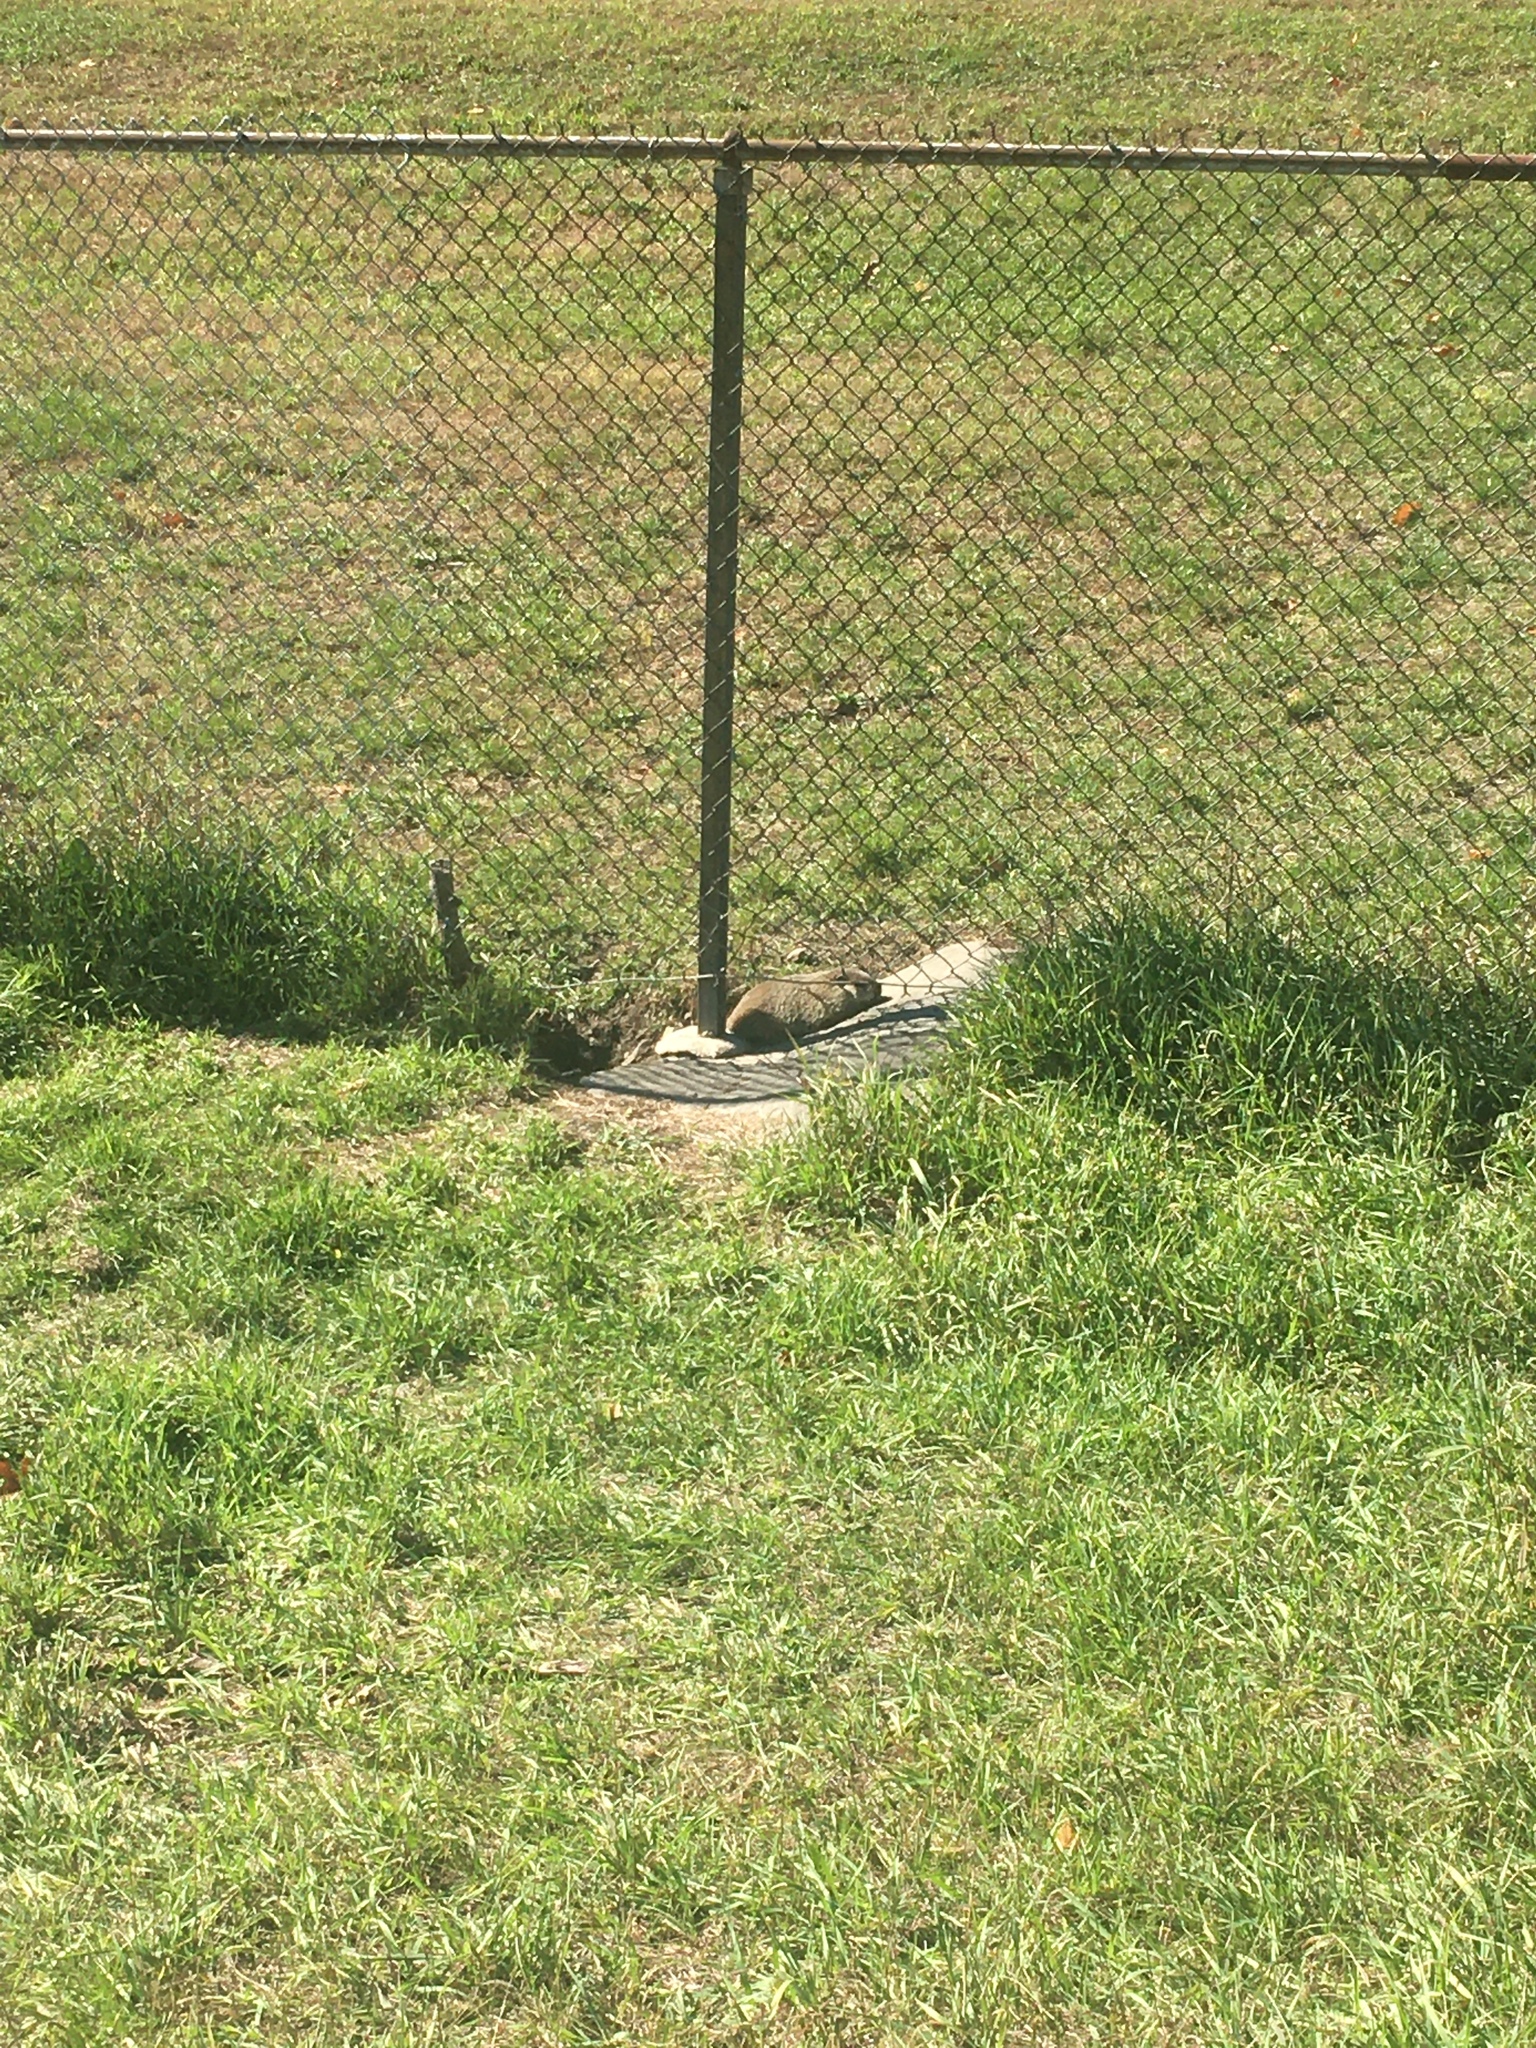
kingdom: Animalia
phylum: Chordata
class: Mammalia
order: Rodentia
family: Sciuridae
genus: Marmota
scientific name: Marmota monax
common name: Groundhog
